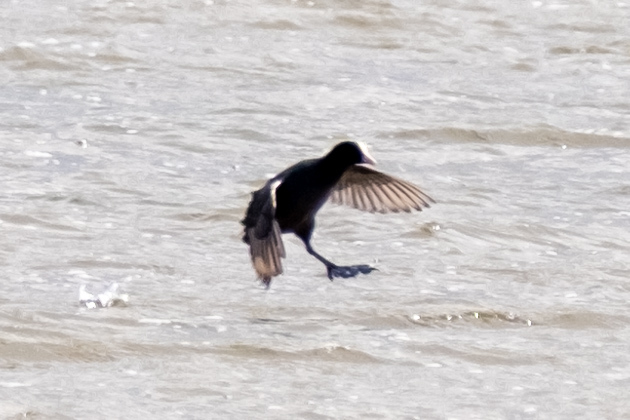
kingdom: Animalia
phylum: Chordata
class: Aves
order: Gruiformes
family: Rallidae
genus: Fulica
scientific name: Fulica atra
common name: Eurasian coot
